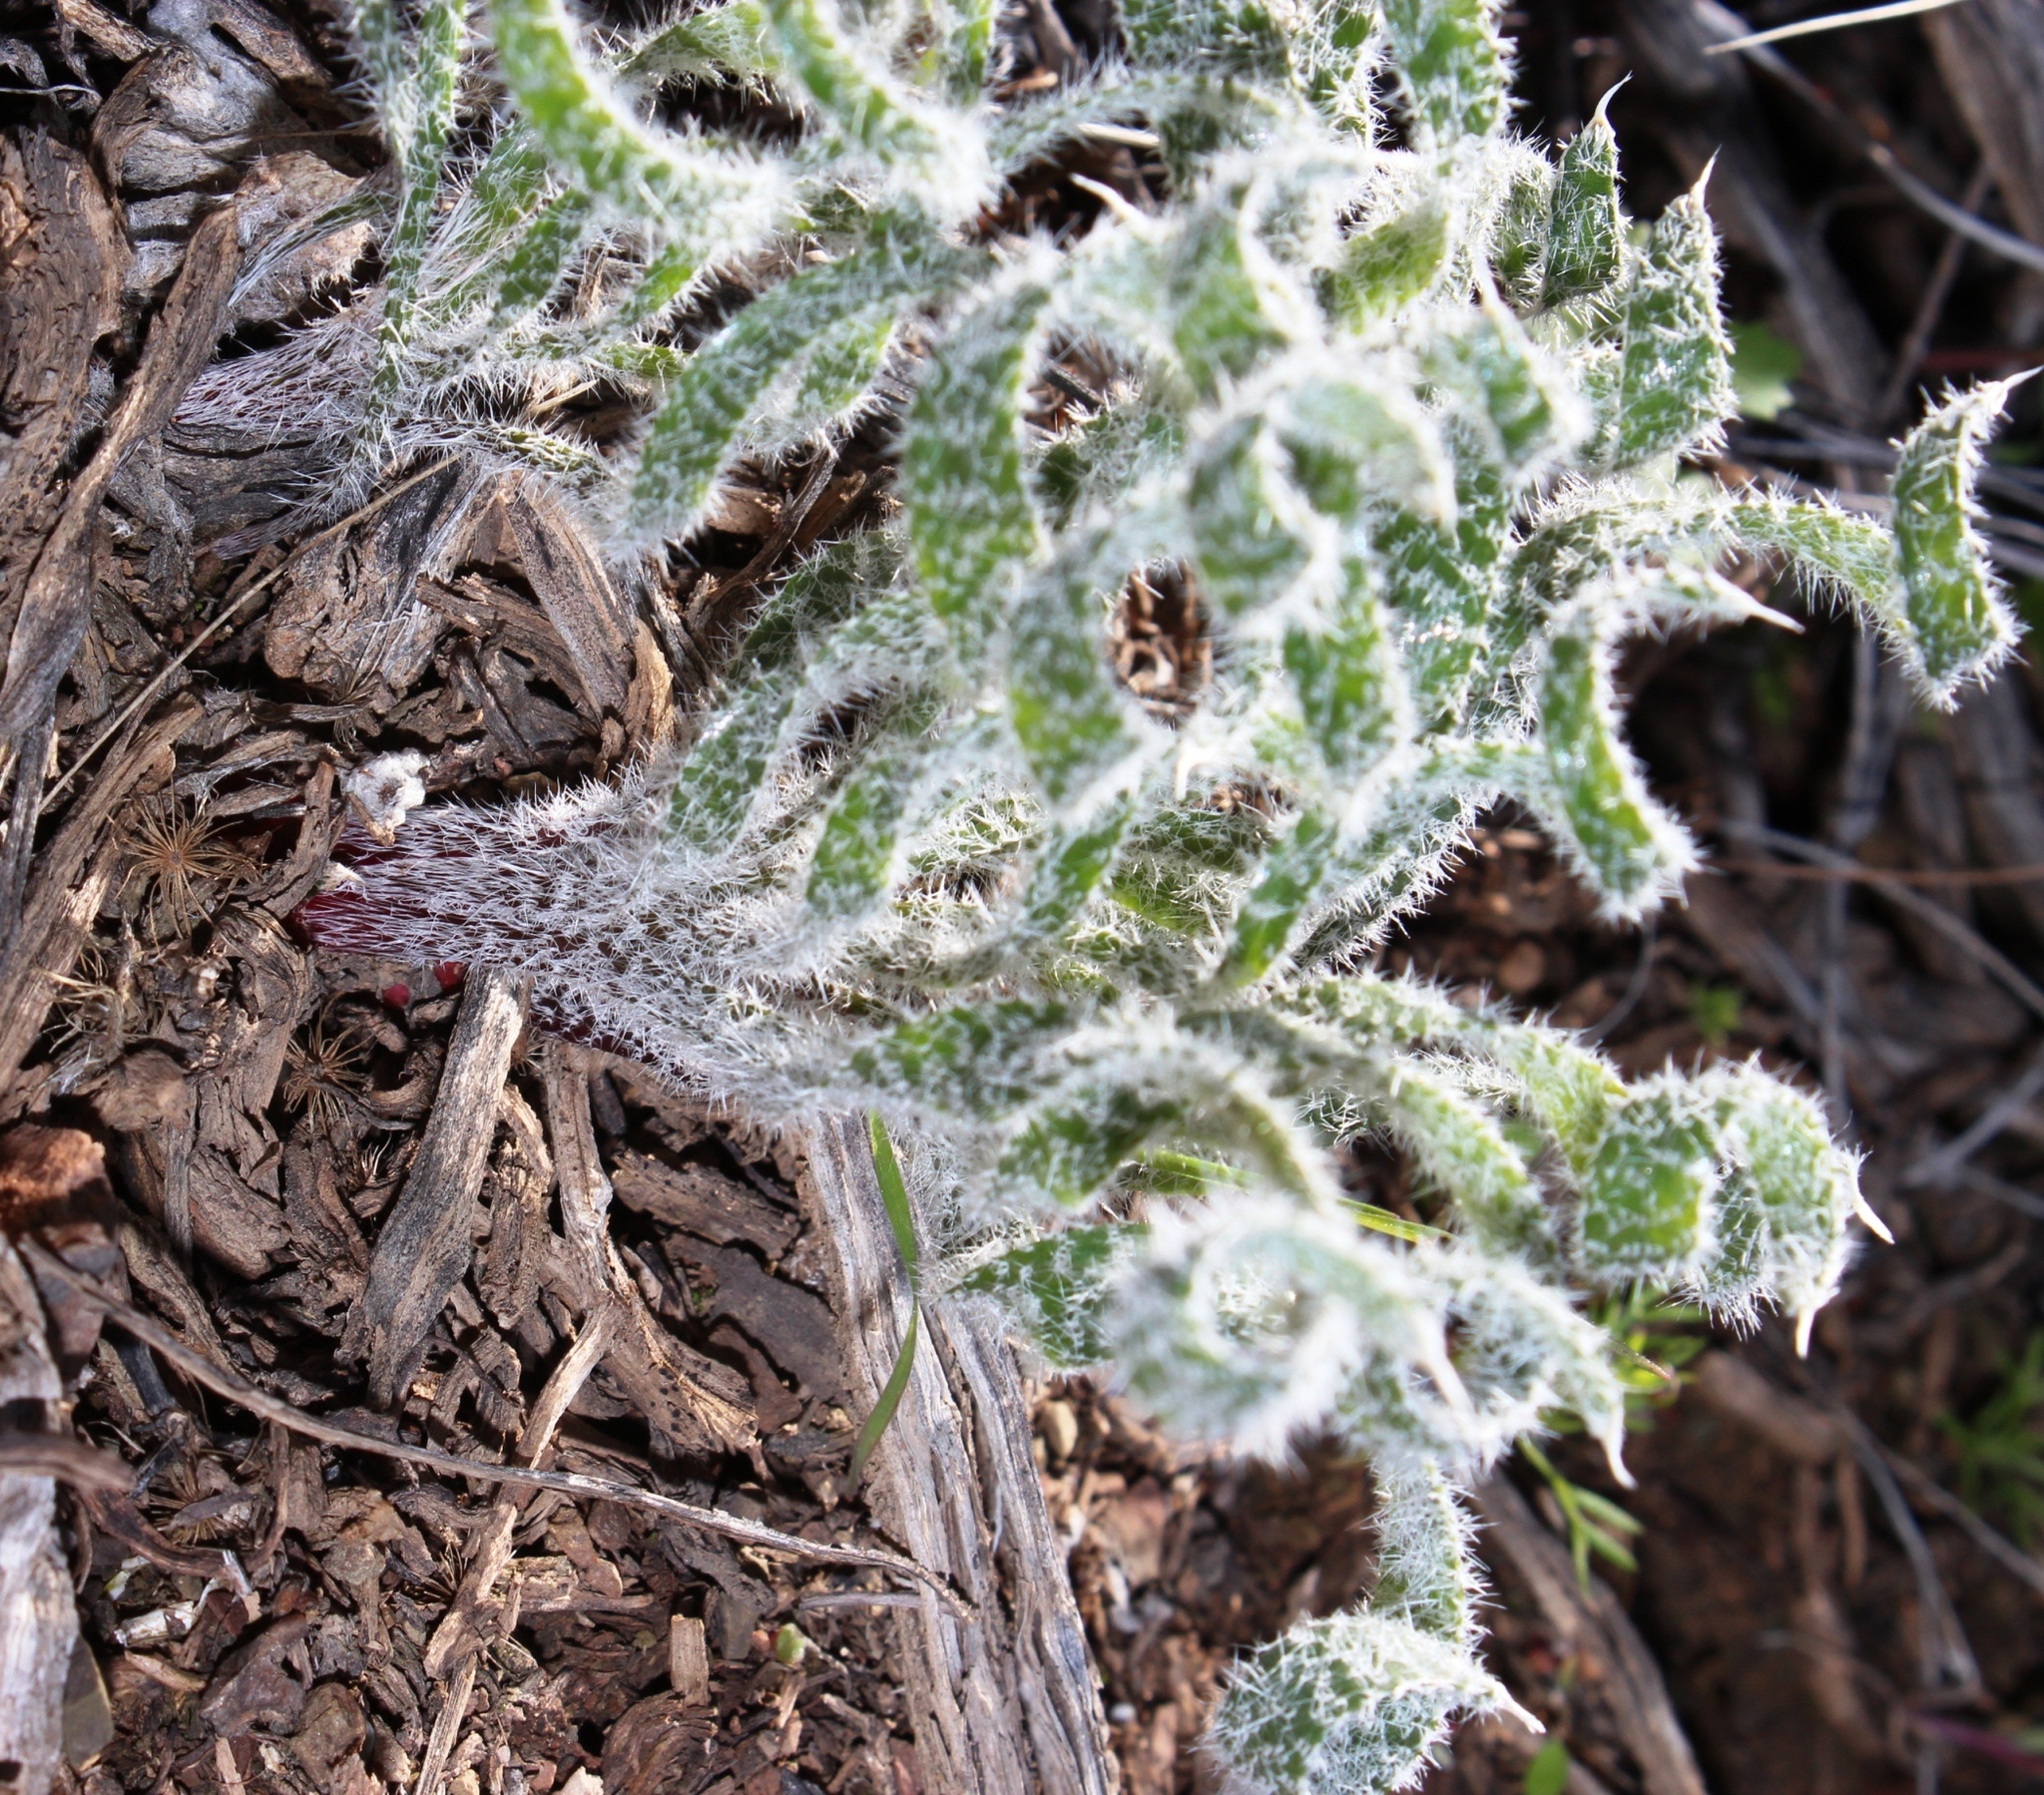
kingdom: Plantae
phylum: Tracheophyta
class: Liliopsida
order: Asparagales
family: Amaryllidaceae
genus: Gethyllis
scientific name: Gethyllis villosa
